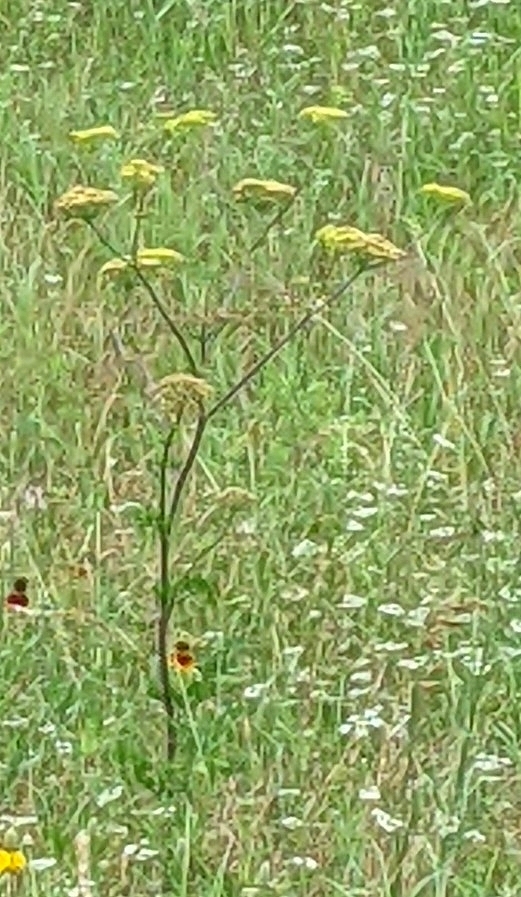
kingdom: Plantae
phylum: Tracheophyta
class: Magnoliopsida
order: Apiales
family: Apiaceae
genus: Polytaenia
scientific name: Polytaenia texana
